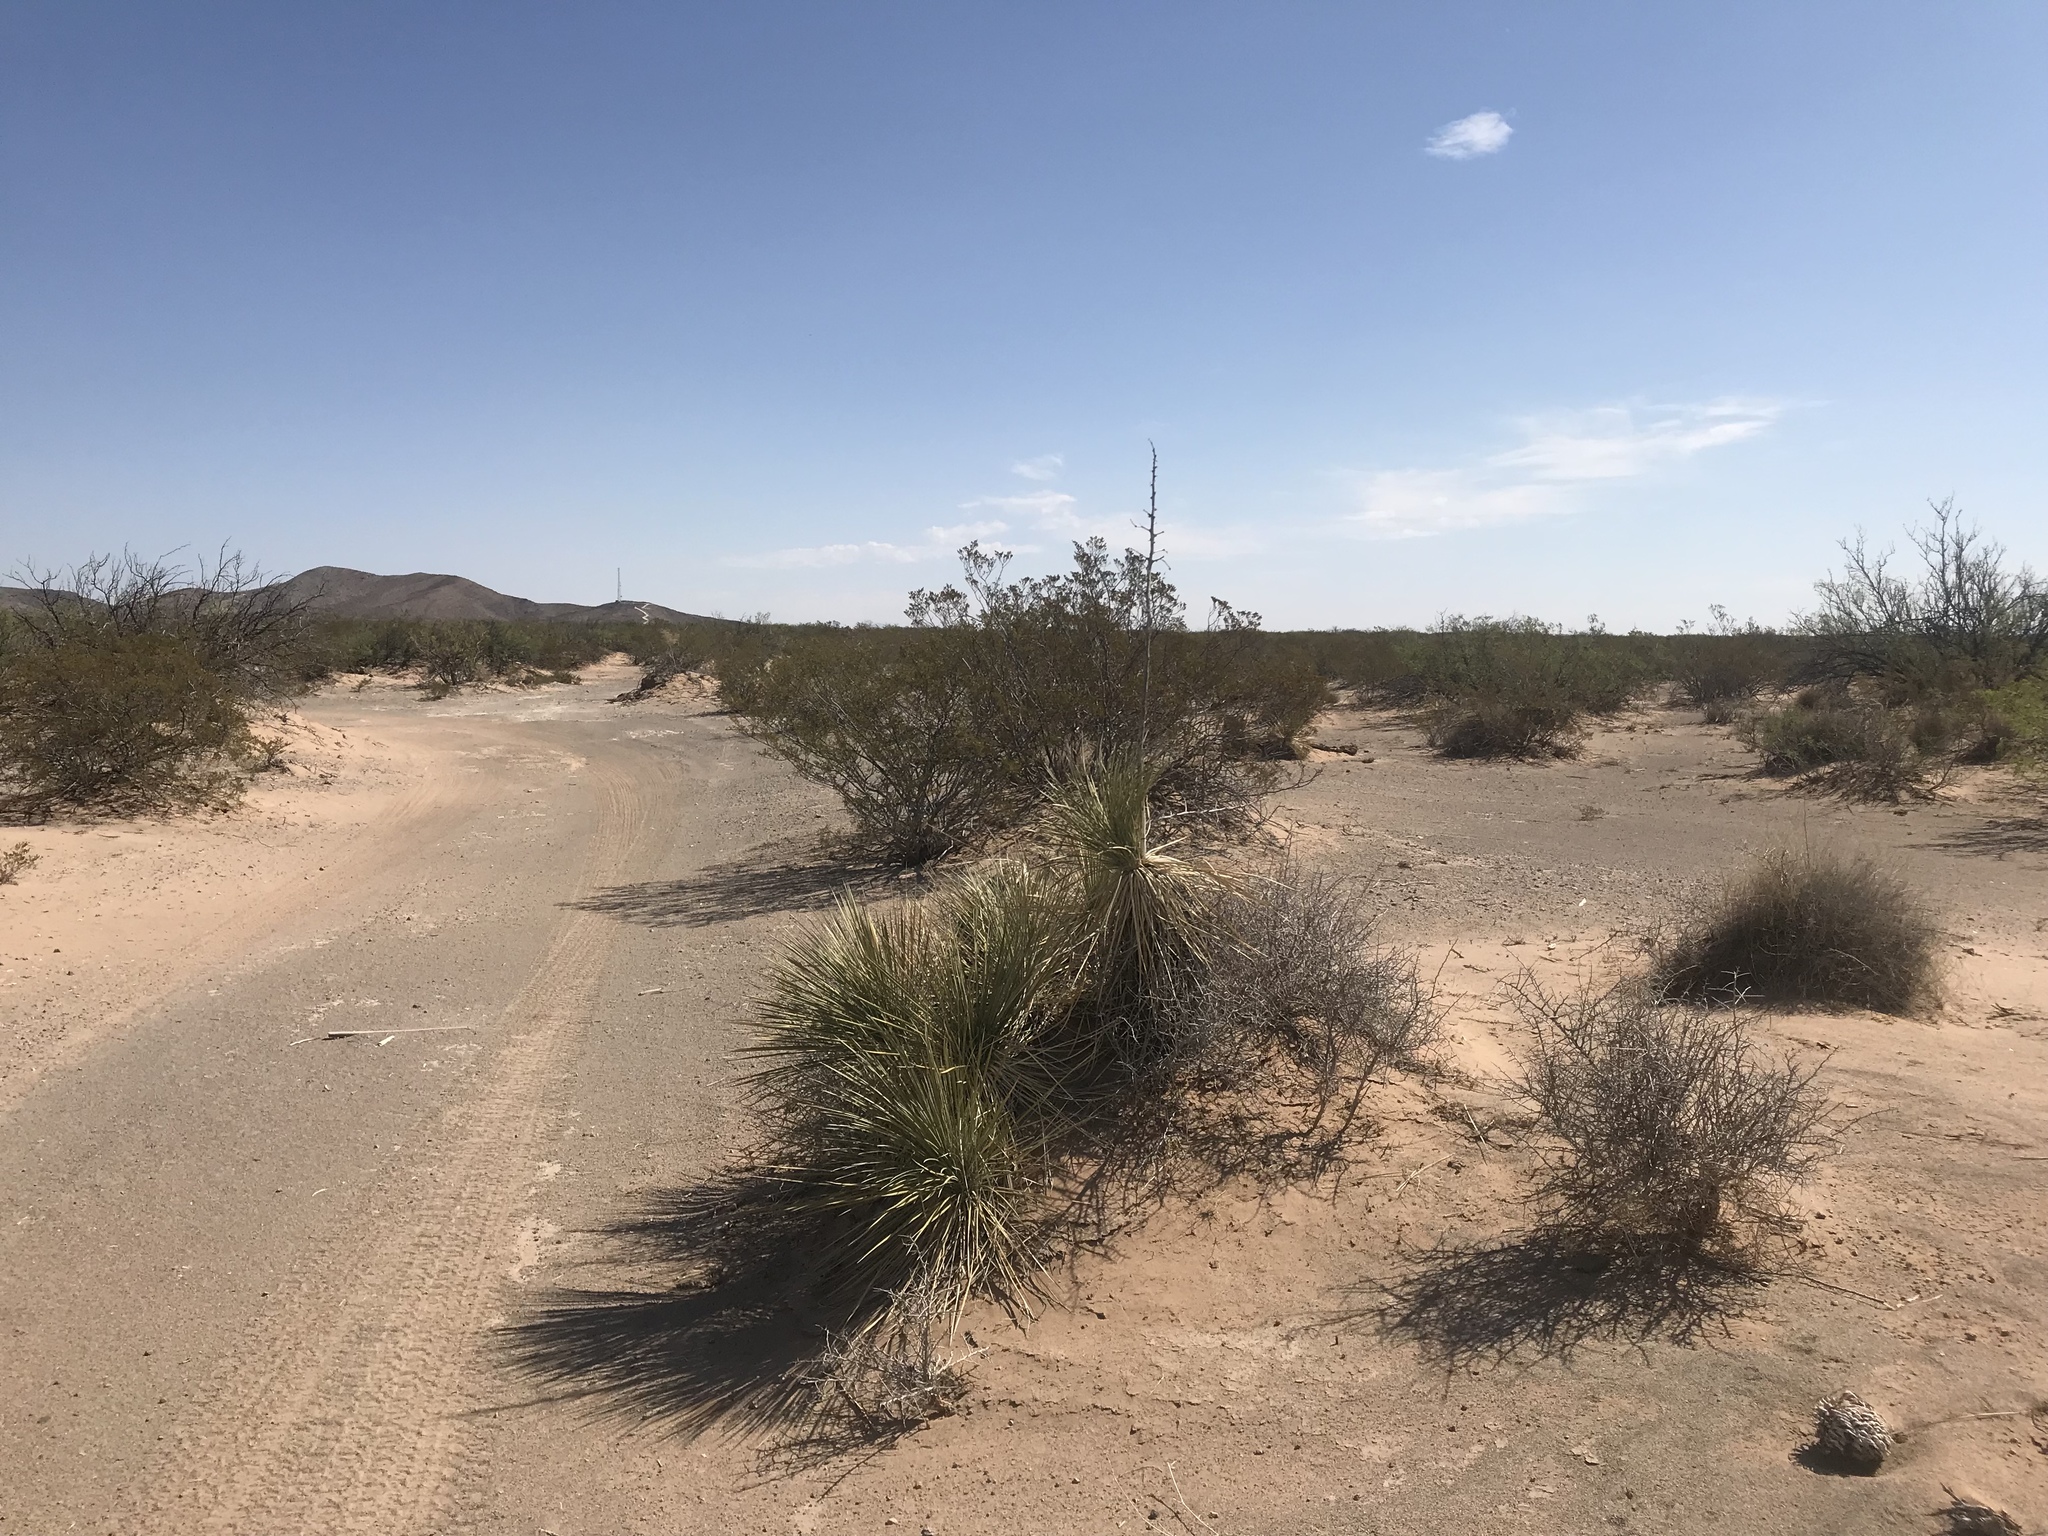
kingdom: Plantae
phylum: Tracheophyta
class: Liliopsida
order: Asparagales
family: Asparagaceae
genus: Yucca
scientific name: Yucca elata
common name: Palmella
